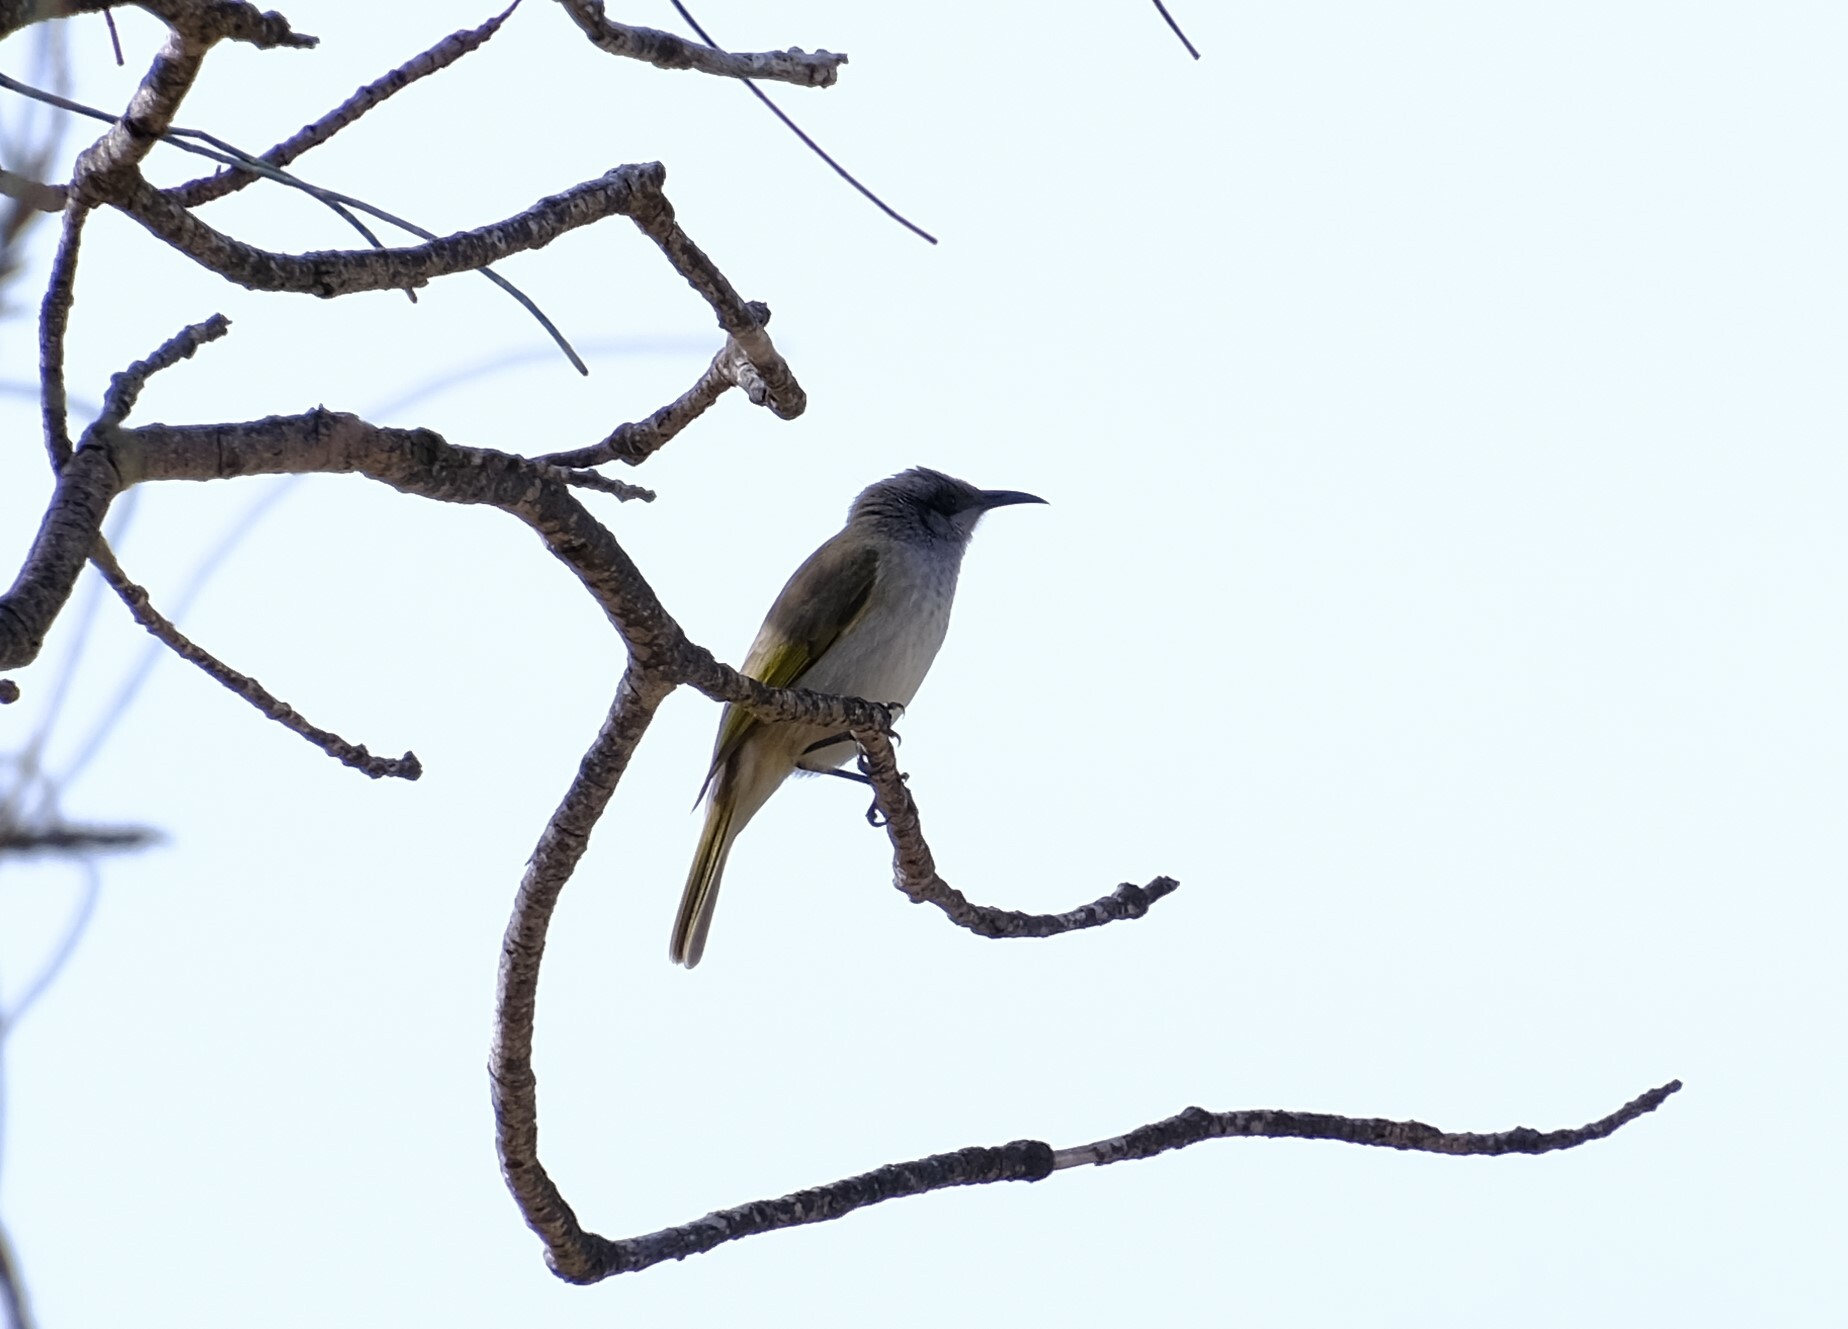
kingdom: Animalia
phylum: Chordata
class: Aves
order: Passeriformes
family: Meliphagidae
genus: Lichmera
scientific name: Lichmera indistincta
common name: Brown honeyeater
